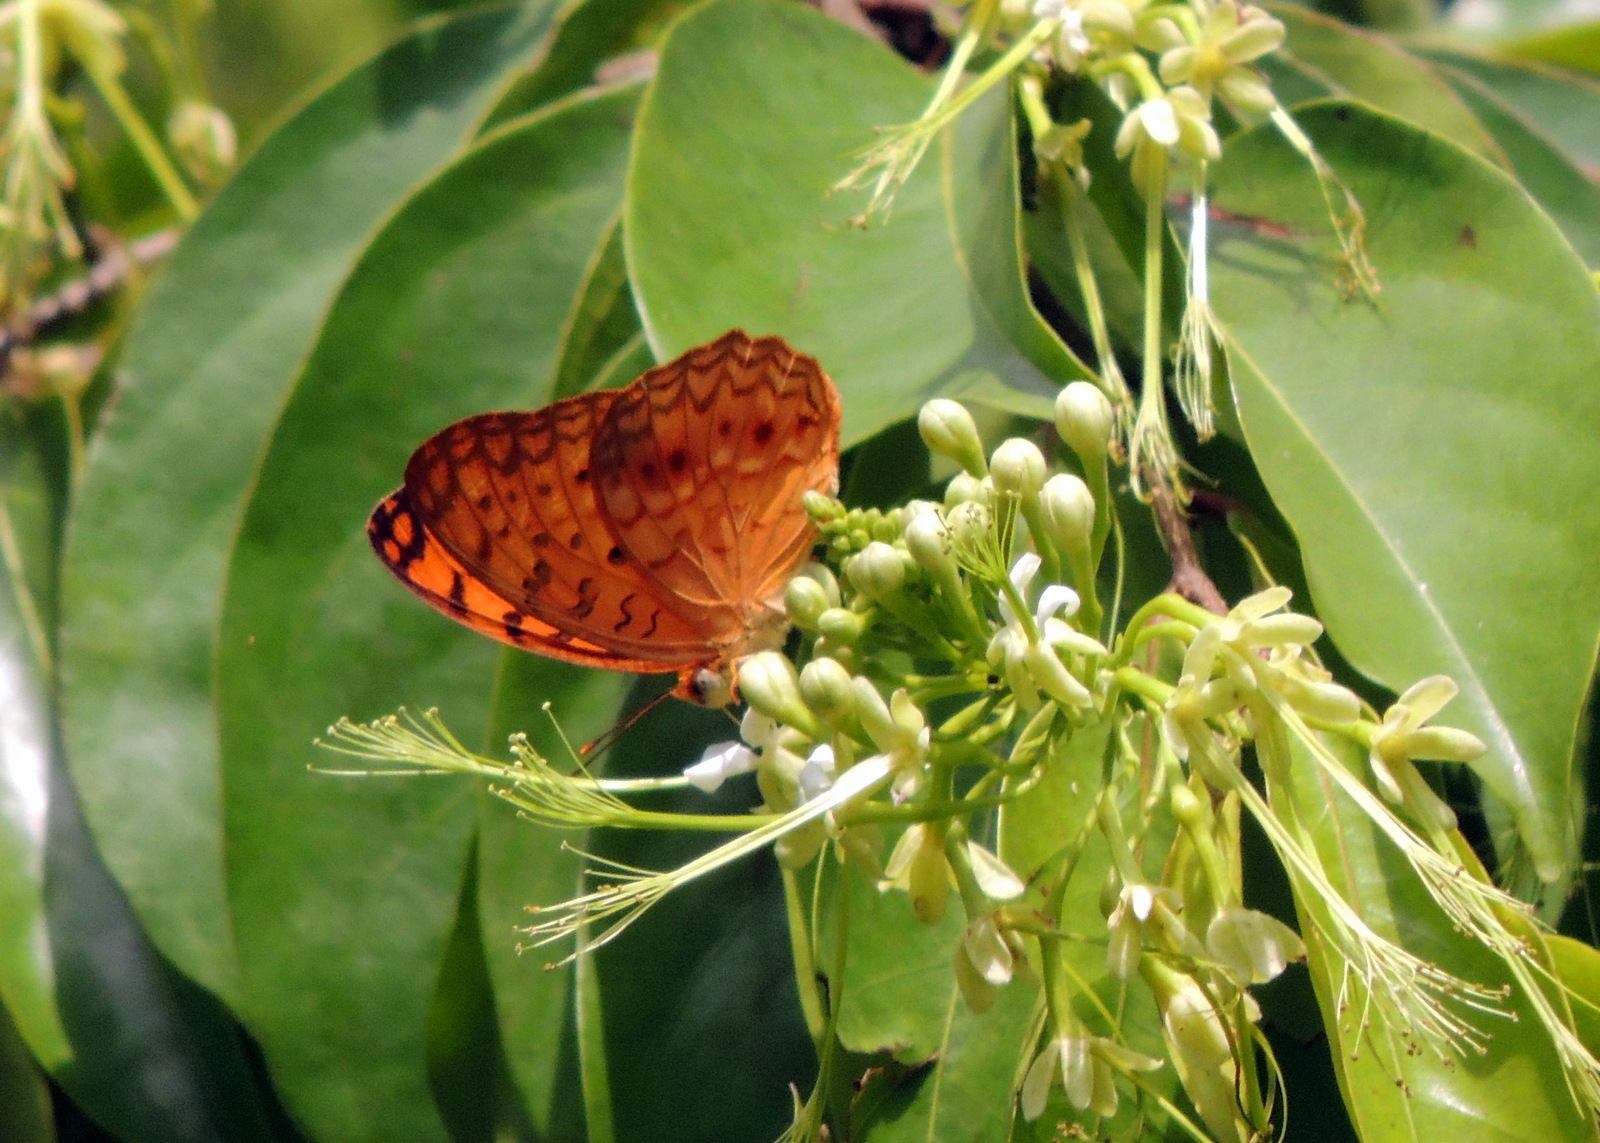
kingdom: Animalia
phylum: Arthropoda
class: Insecta
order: Lepidoptera
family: Nymphalidae
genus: Phalanta
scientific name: Phalanta phalantha
